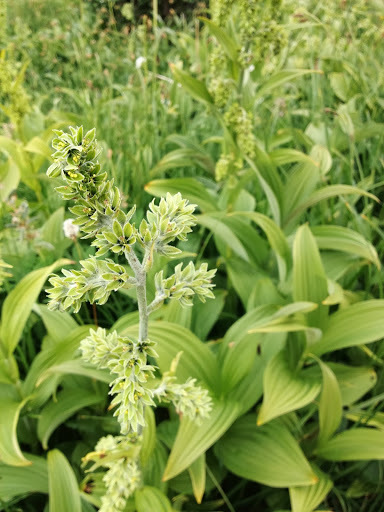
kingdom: Plantae
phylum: Tracheophyta
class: Liliopsida
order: Liliales
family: Melanthiaceae
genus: Veratrum
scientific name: Veratrum viride
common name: American false hellebore
